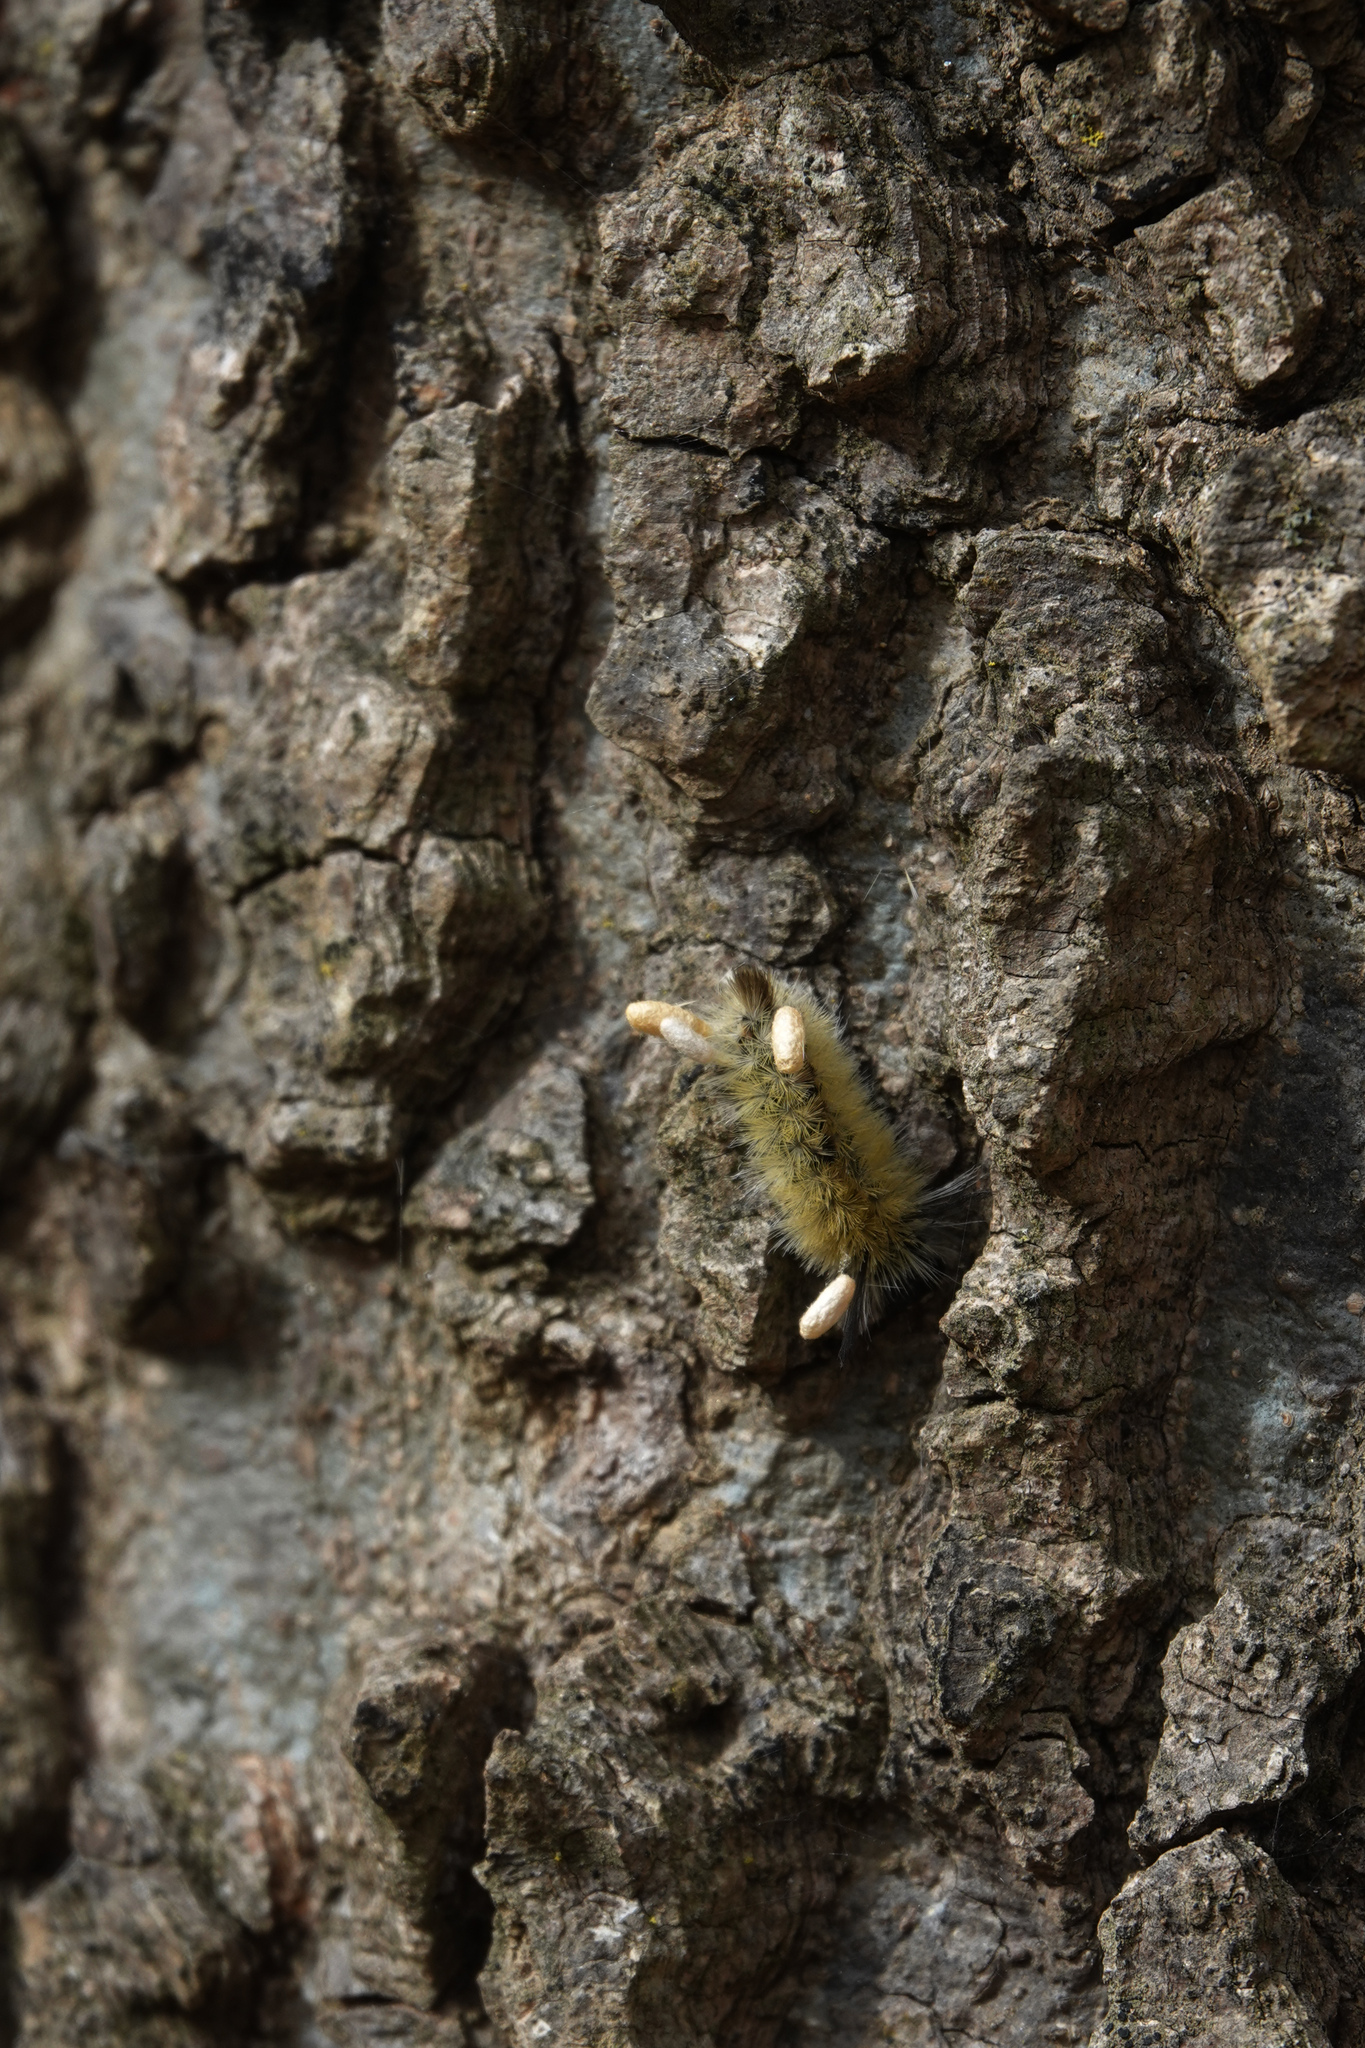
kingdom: Animalia
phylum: Arthropoda
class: Insecta
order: Lepidoptera
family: Erebidae
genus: Halysidota
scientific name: Halysidota tessellaris
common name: Banded tussock moth
